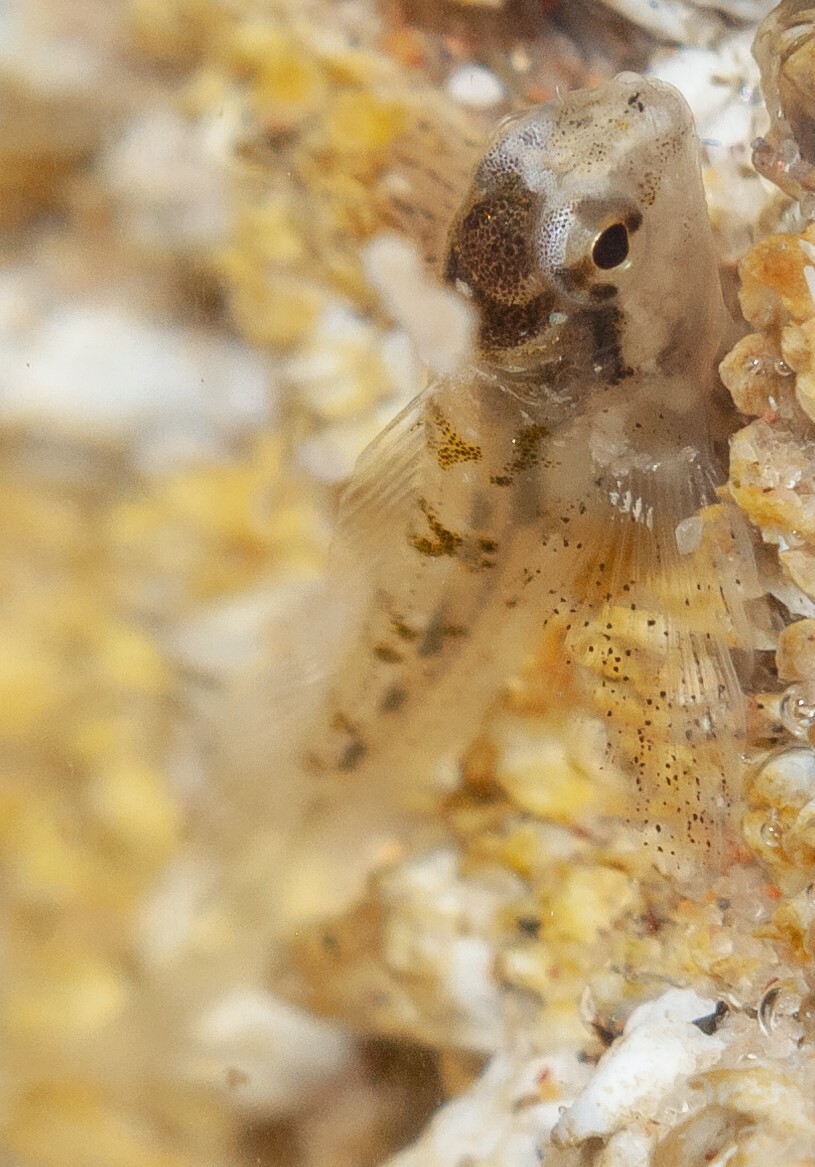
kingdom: Animalia
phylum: Chordata
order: Perciformes
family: Blenniidae
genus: Lipophrys
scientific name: Lipophrys pholis
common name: Shanny
